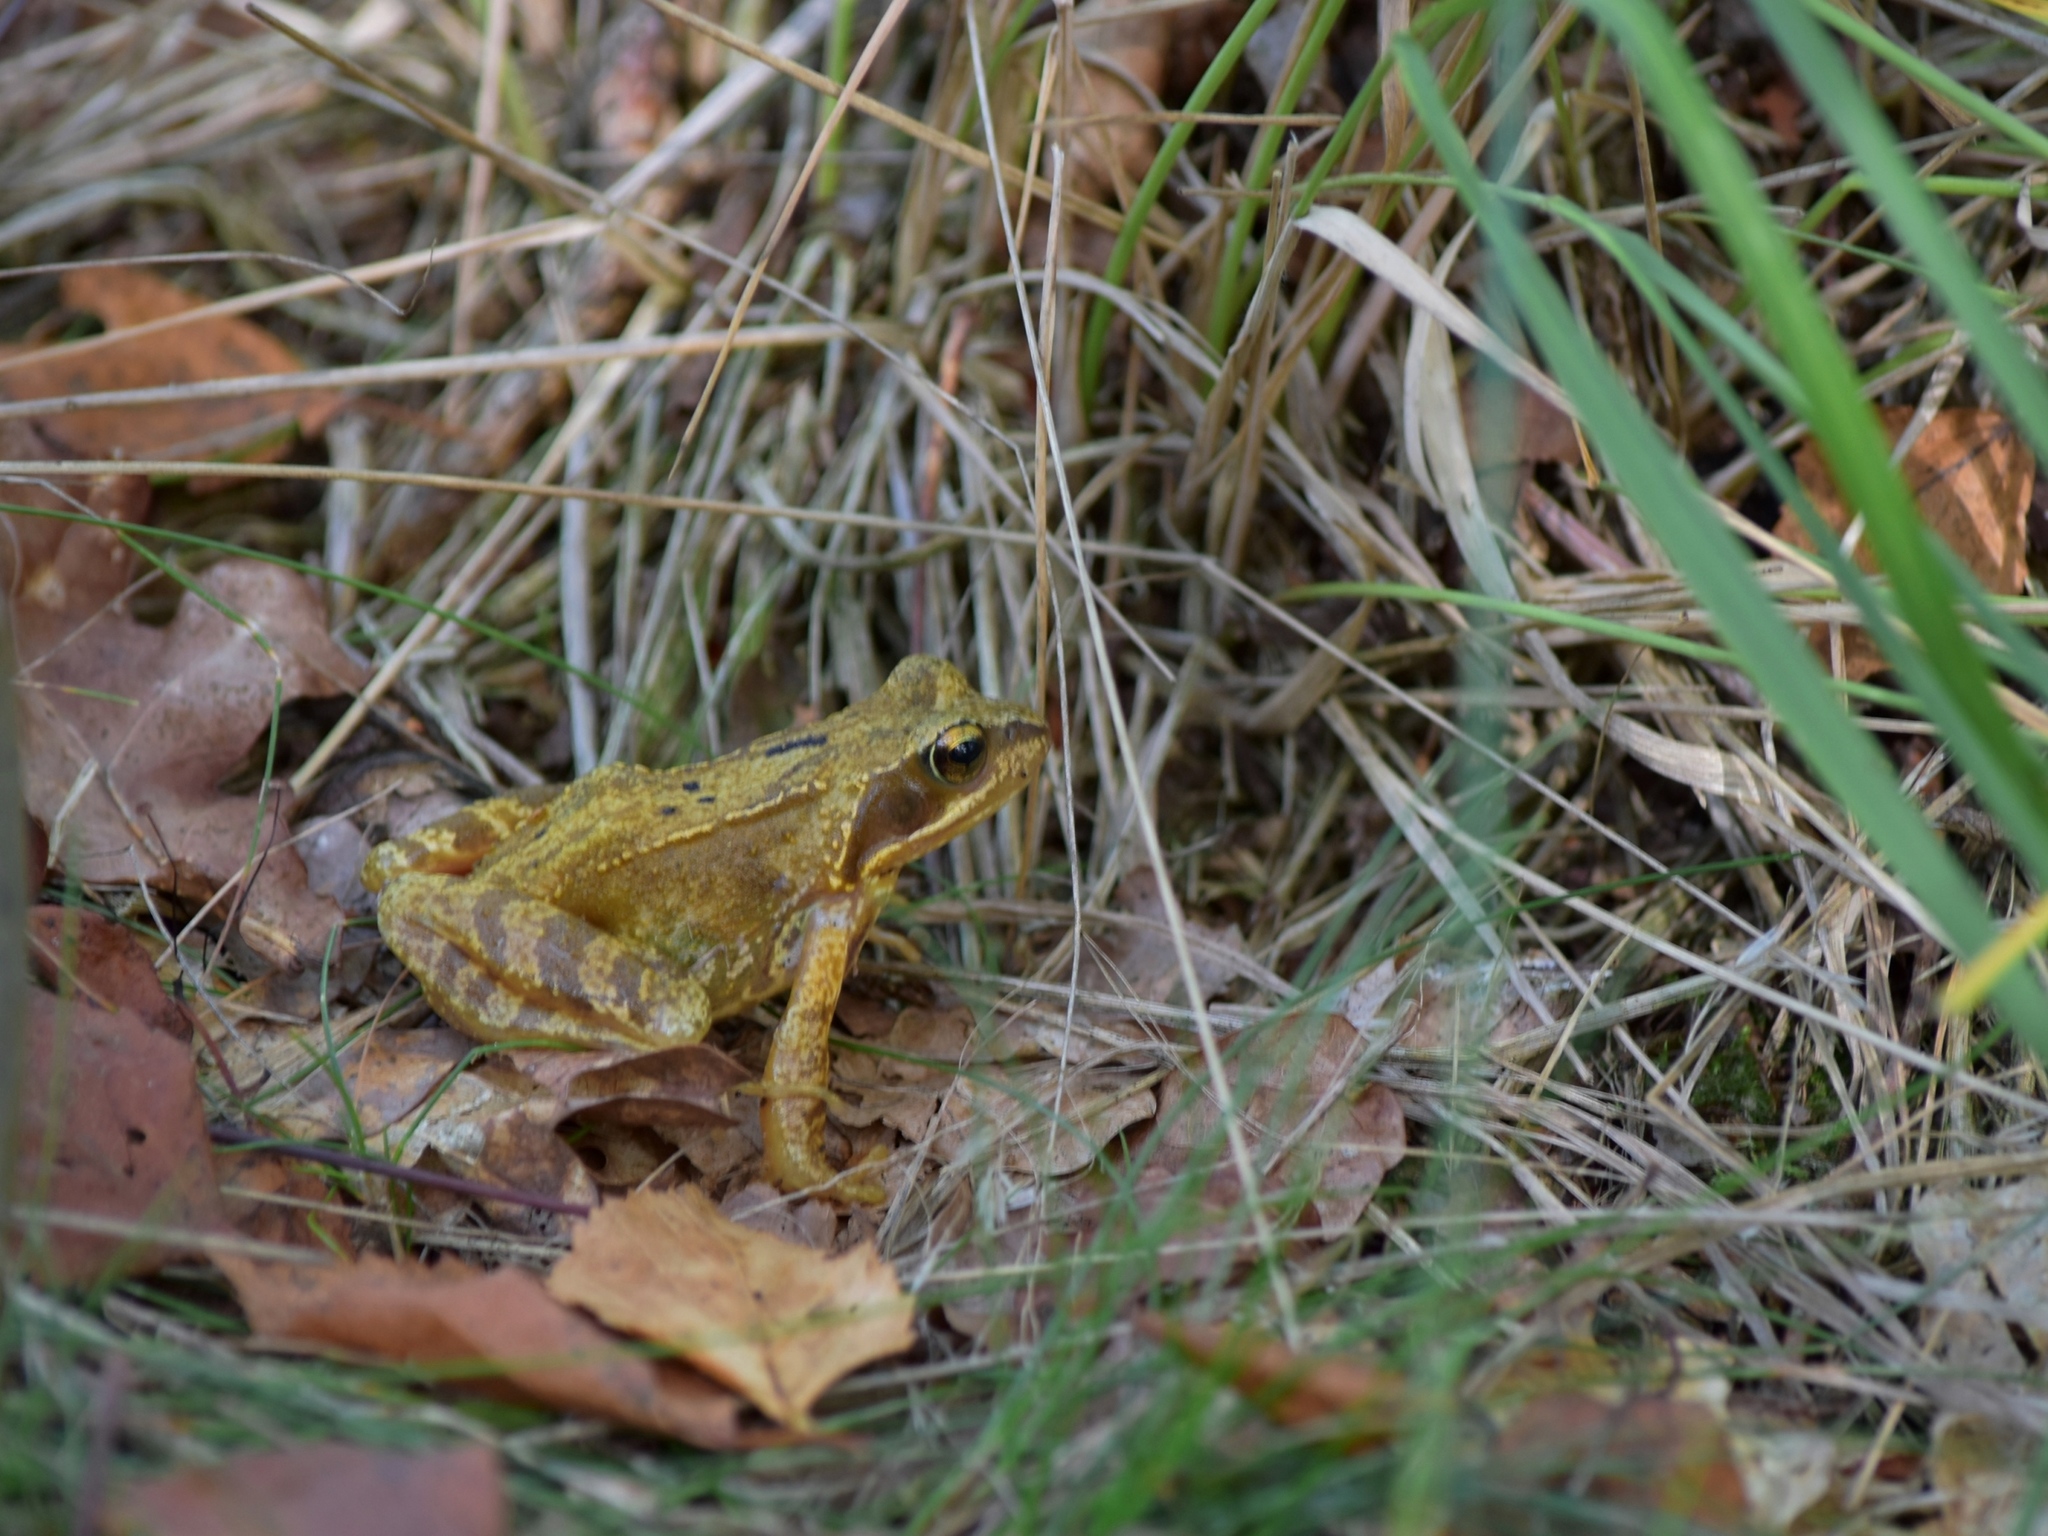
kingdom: Animalia
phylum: Chordata
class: Amphibia
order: Anura
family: Ranidae
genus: Rana
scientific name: Rana temporaria
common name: Common frog
